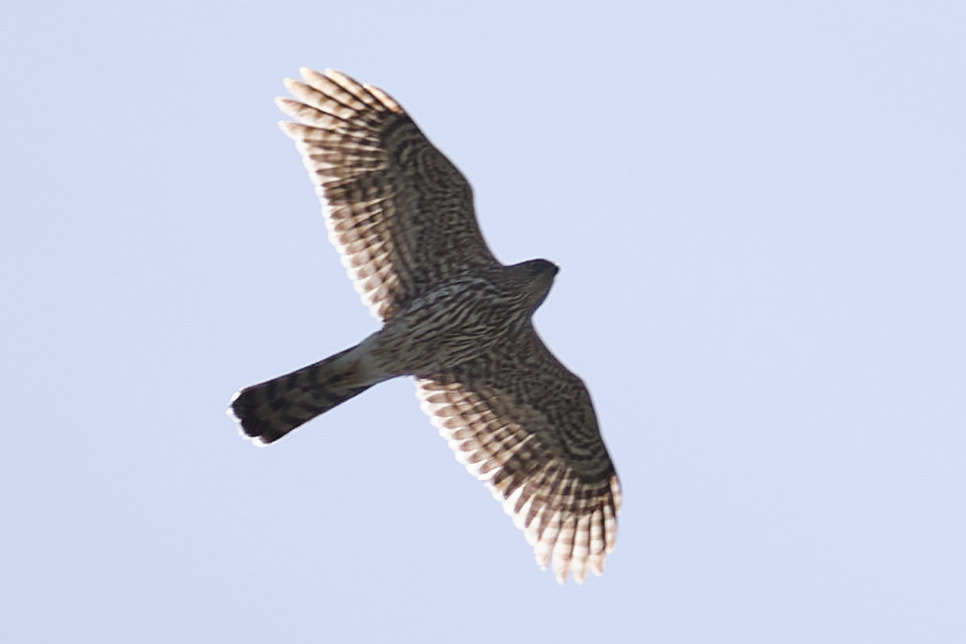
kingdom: Animalia
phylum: Chordata
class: Aves
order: Accipitriformes
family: Accipitridae
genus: Accipiter
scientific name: Accipiter cooperii
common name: Cooper's hawk
